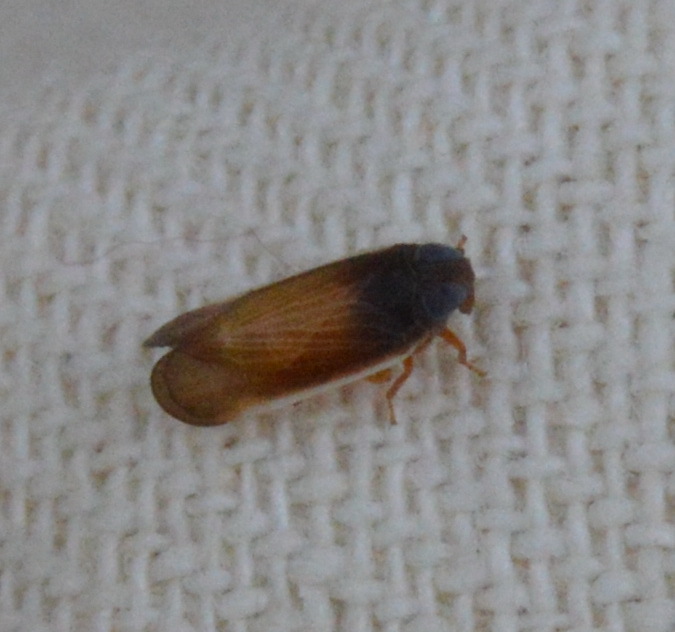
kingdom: Animalia
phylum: Arthropoda
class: Insecta
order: Hemiptera
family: Cixiidae
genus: Haplaxius
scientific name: Haplaxius slossonae
